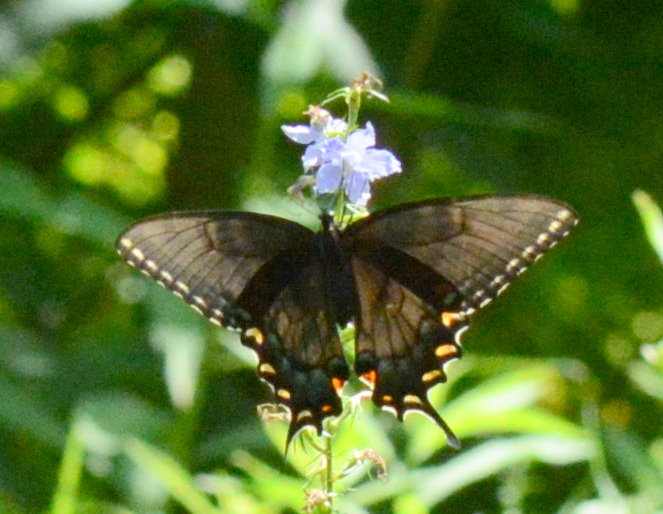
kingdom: Animalia
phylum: Arthropoda
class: Insecta
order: Lepidoptera
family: Papilionidae
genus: Papilio
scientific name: Papilio glaucus
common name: Tiger swallowtail
